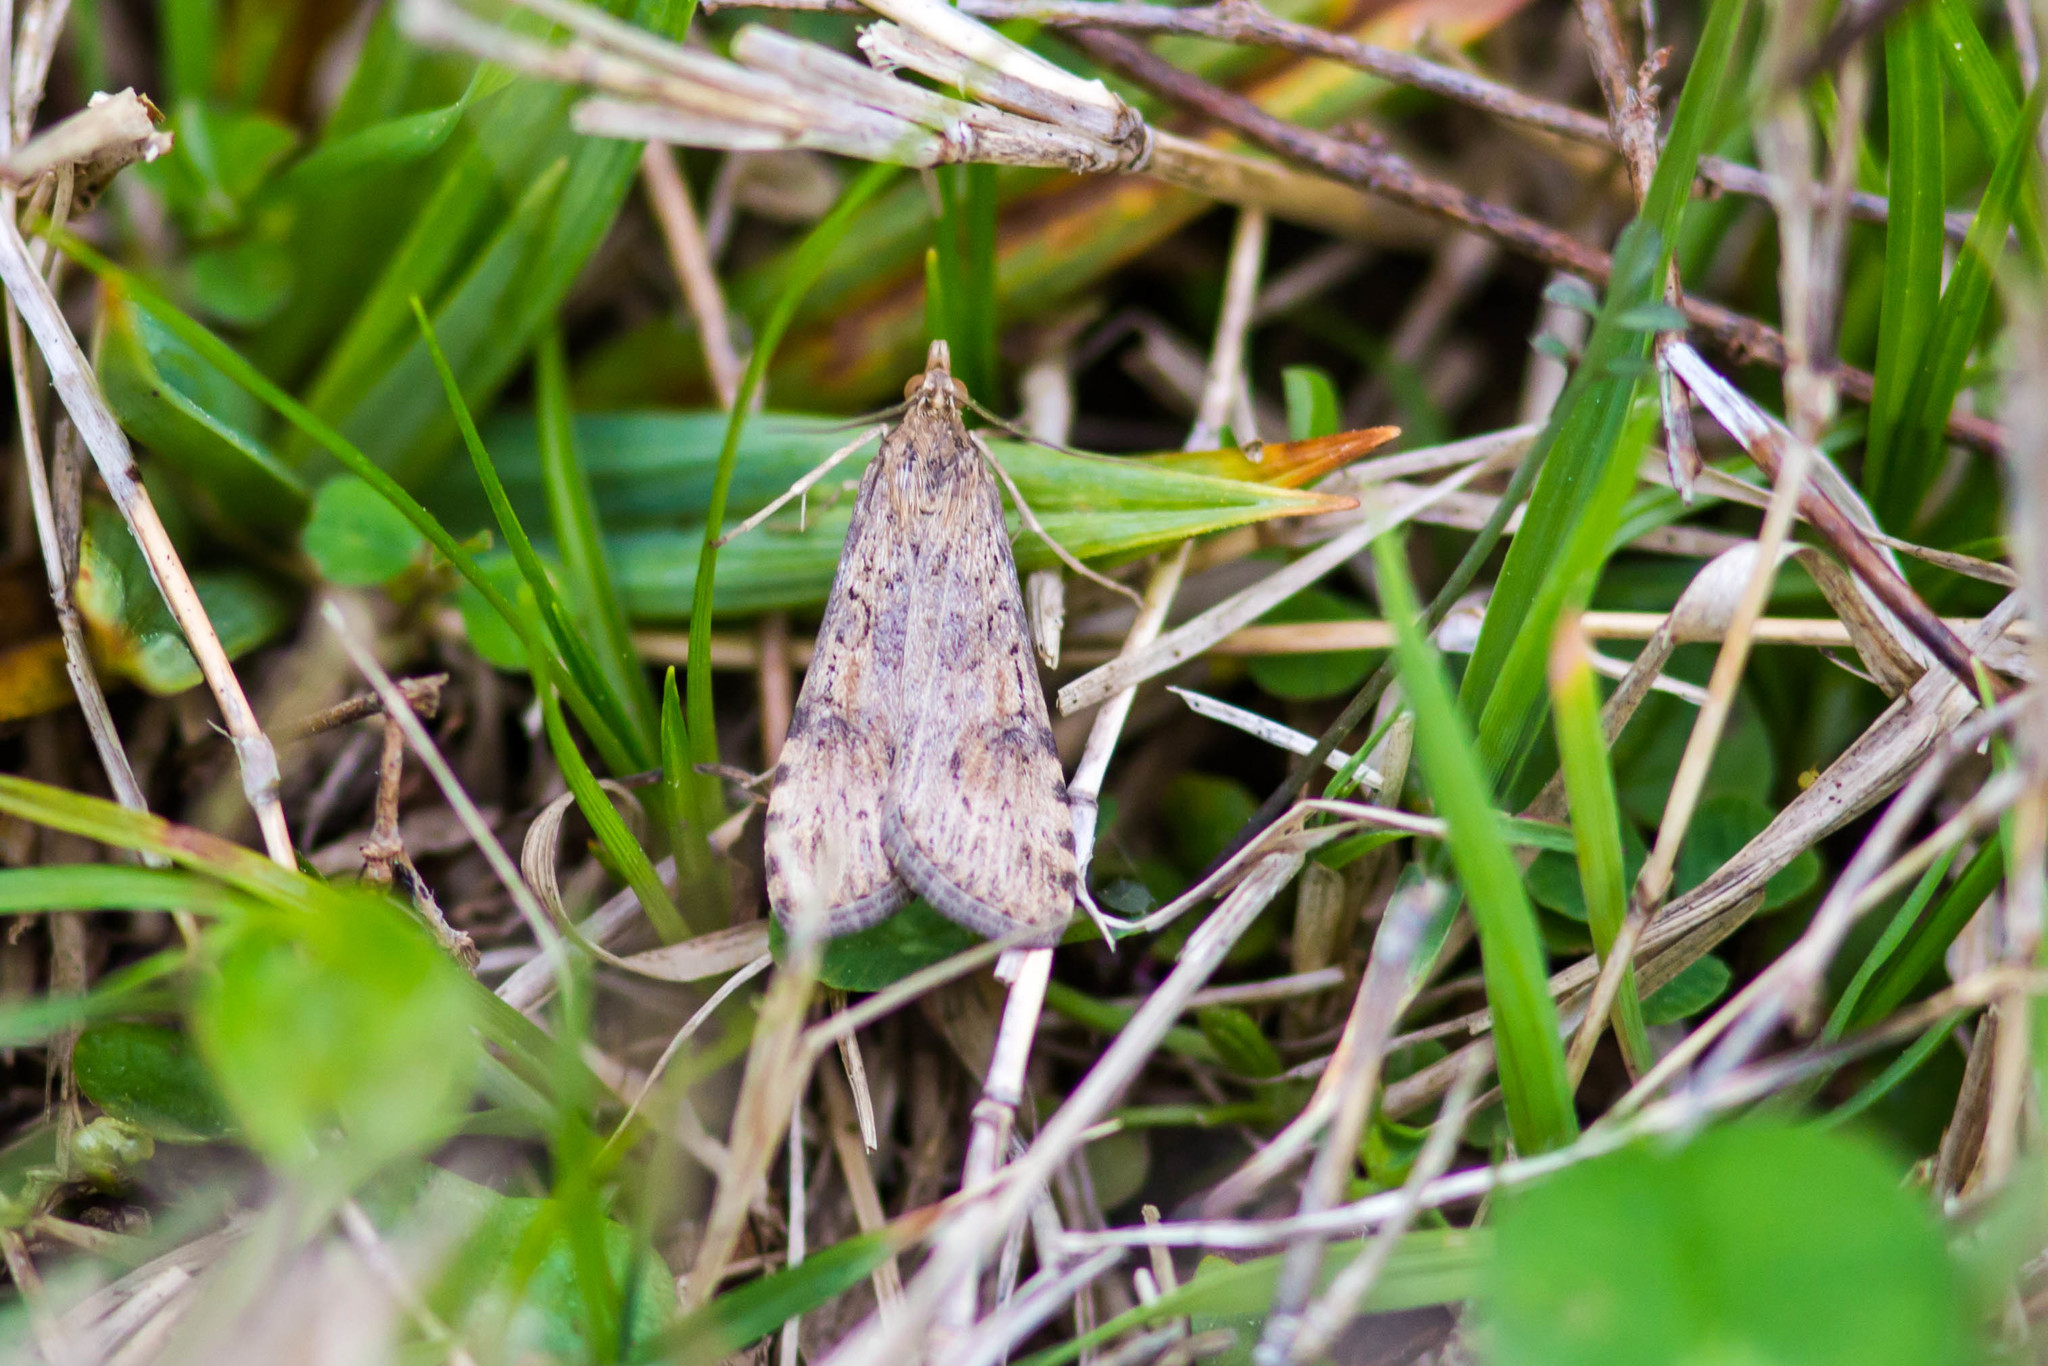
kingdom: Animalia
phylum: Arthropoda
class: Insecta
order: Lepidoptera
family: Crambidae
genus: Nomophila
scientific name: Nomophila nearctica
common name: American rush veneer
